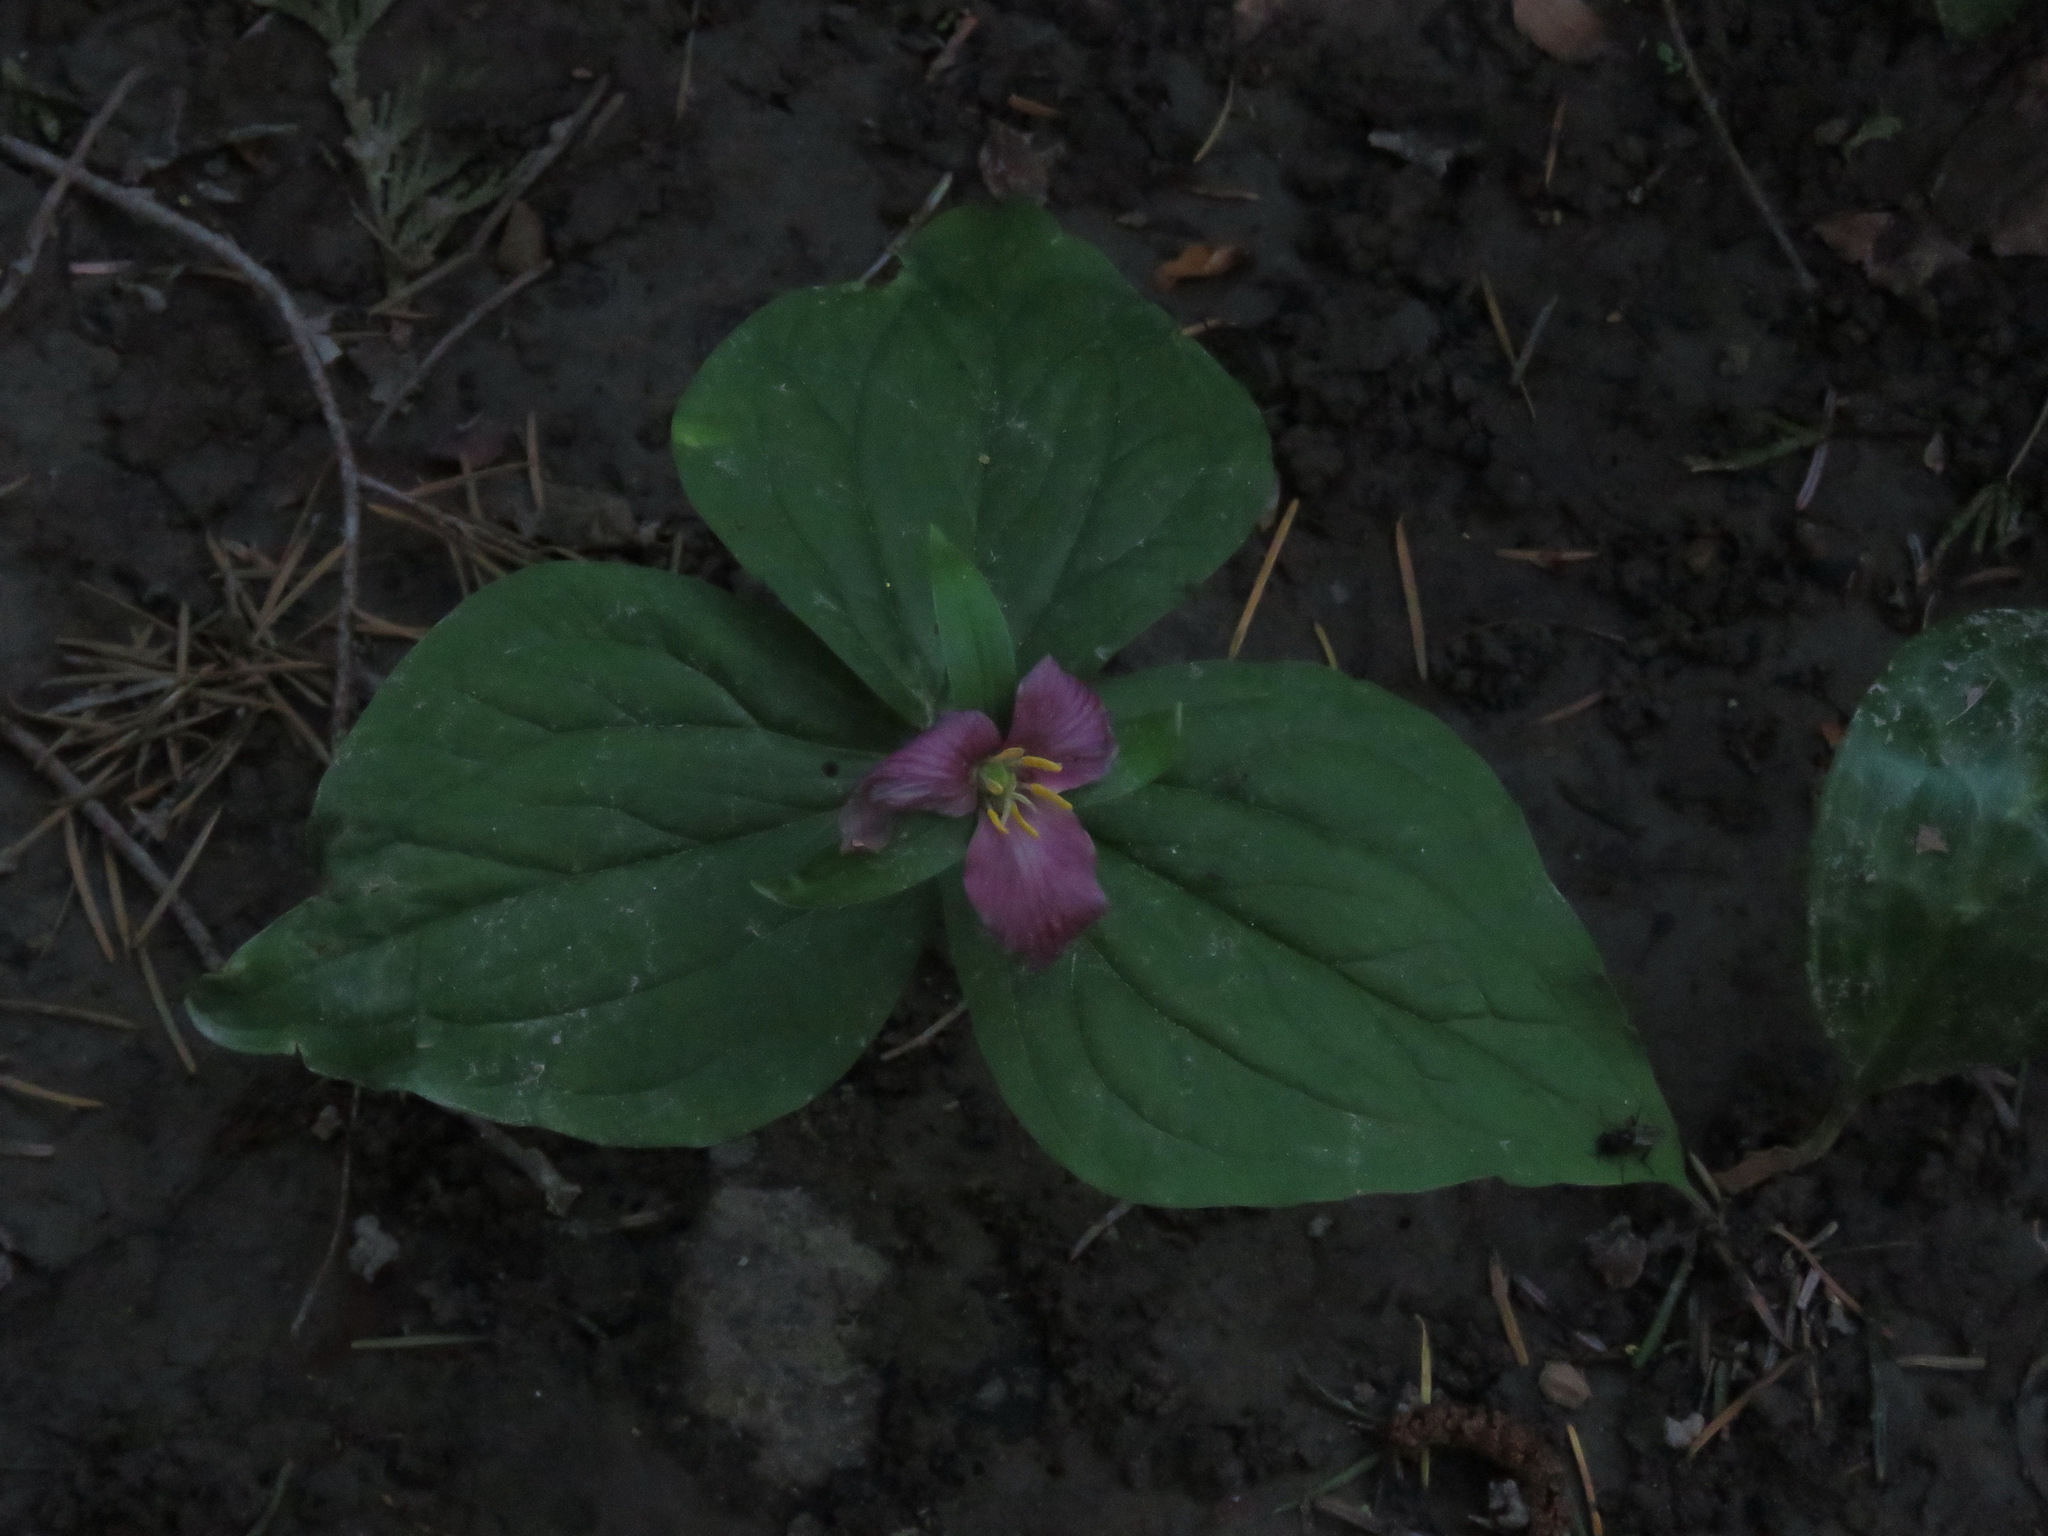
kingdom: Plantae
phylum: Tracheophyta
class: Liliopsida
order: Liliales
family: Melanthiaceae
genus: Trillium
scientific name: Trillium ovatum
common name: Pacific trillium
